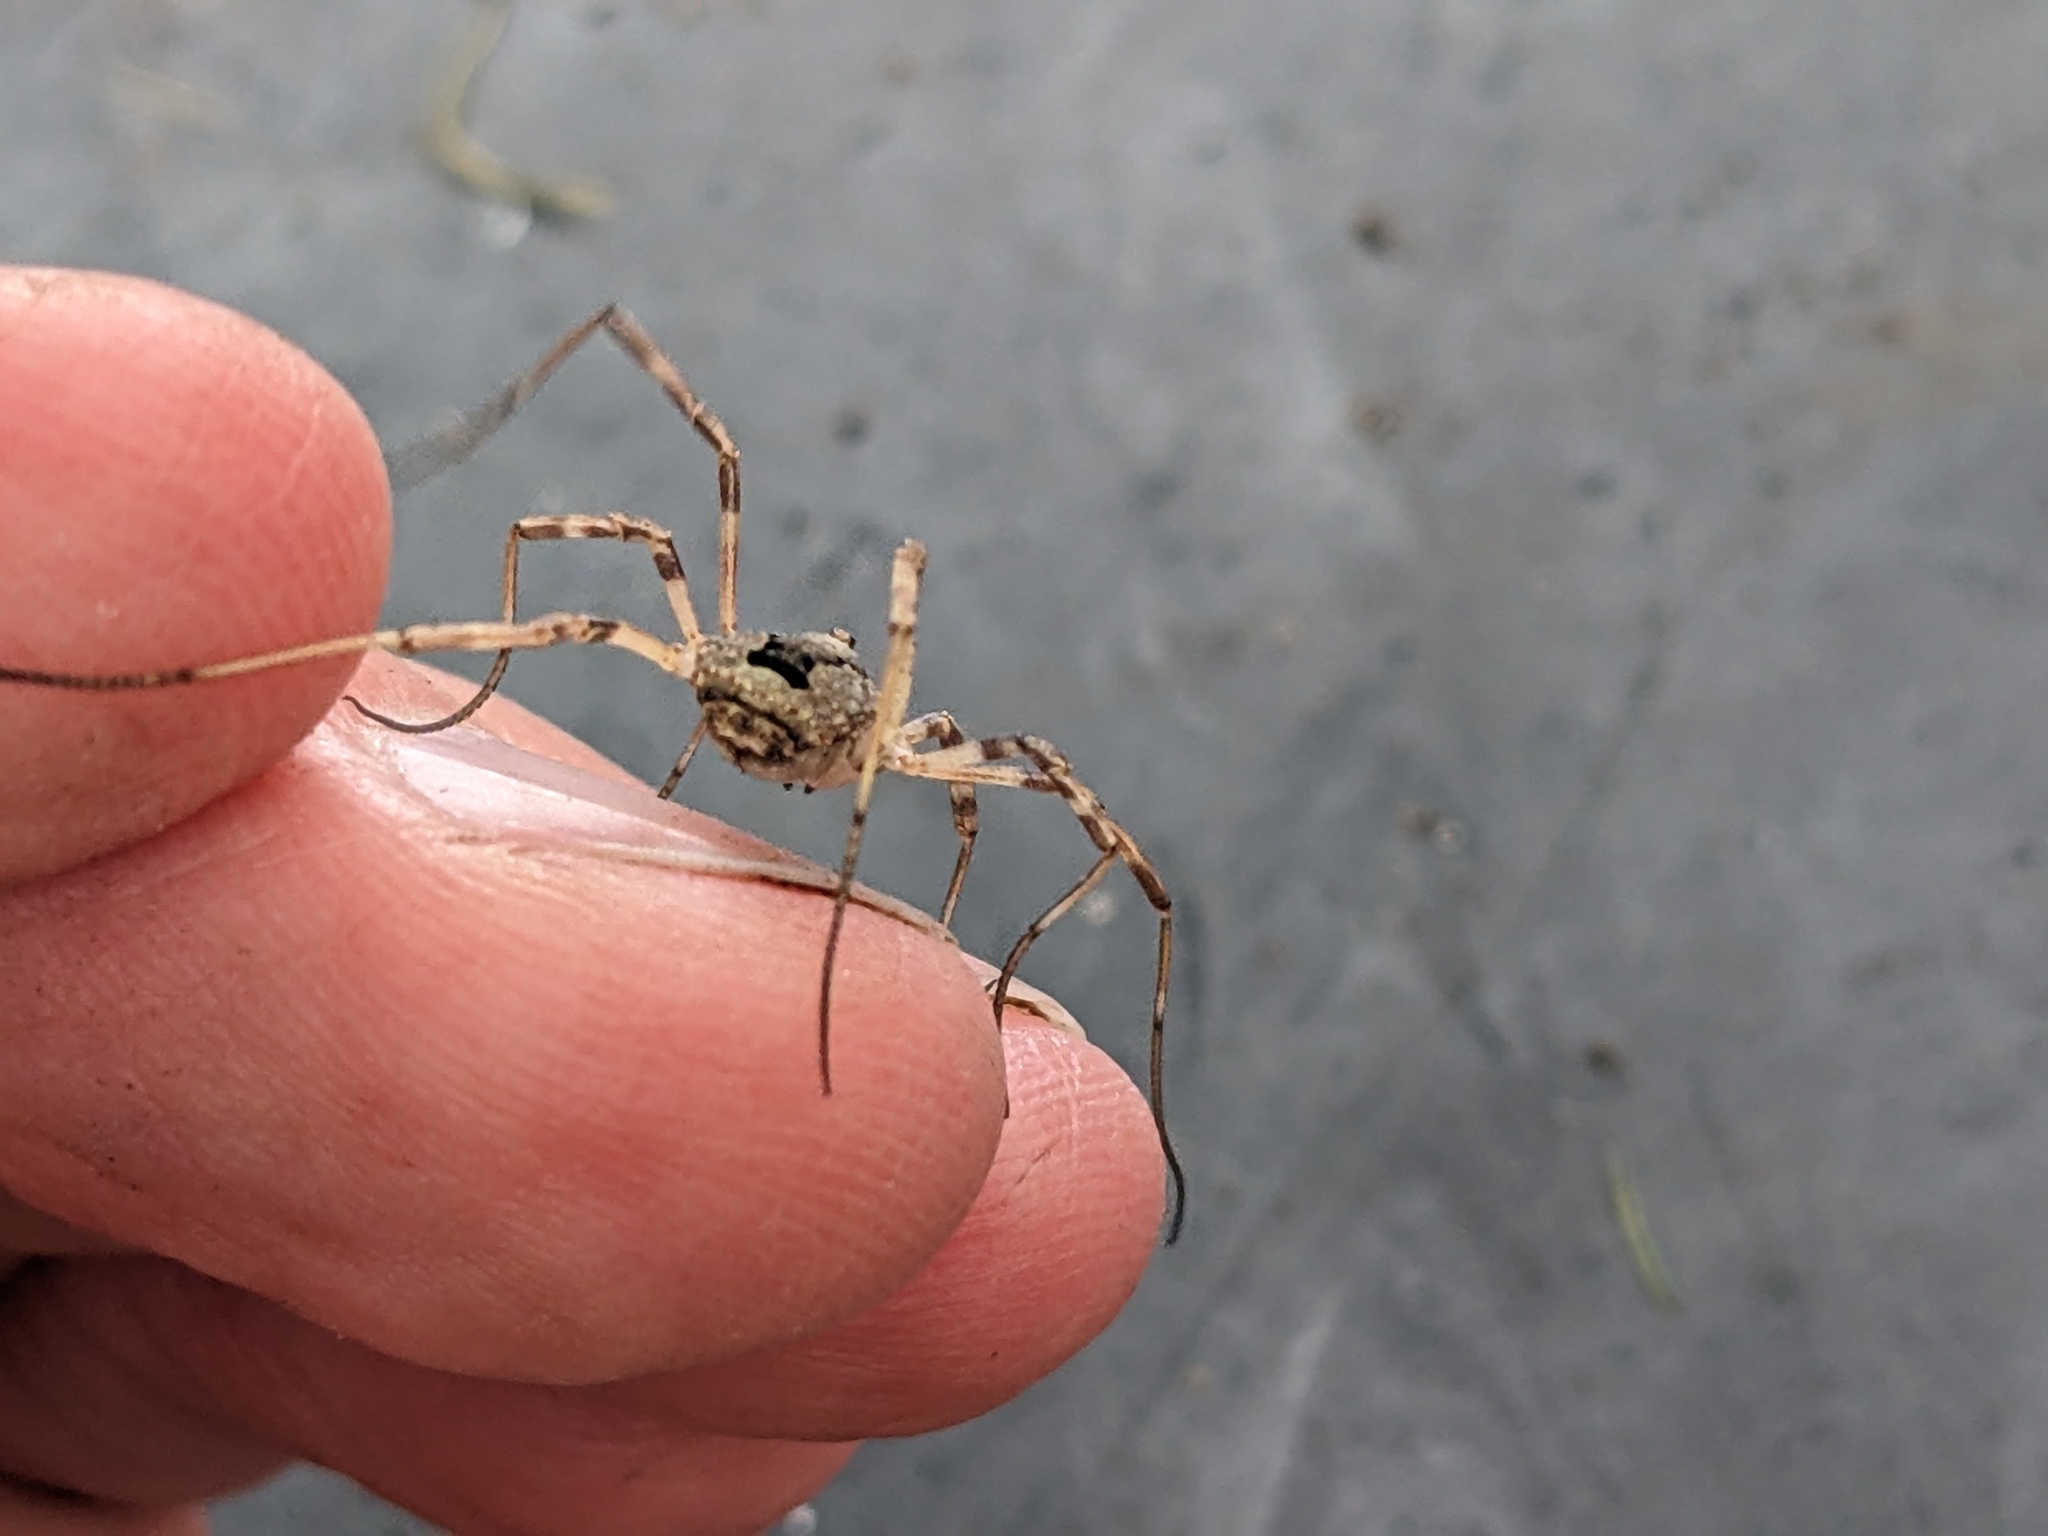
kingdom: Animalia
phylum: Arthropoda
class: Arachnida
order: Opiliones
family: Phalangiidae
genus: Odiellus
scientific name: Odiellus spinosus
